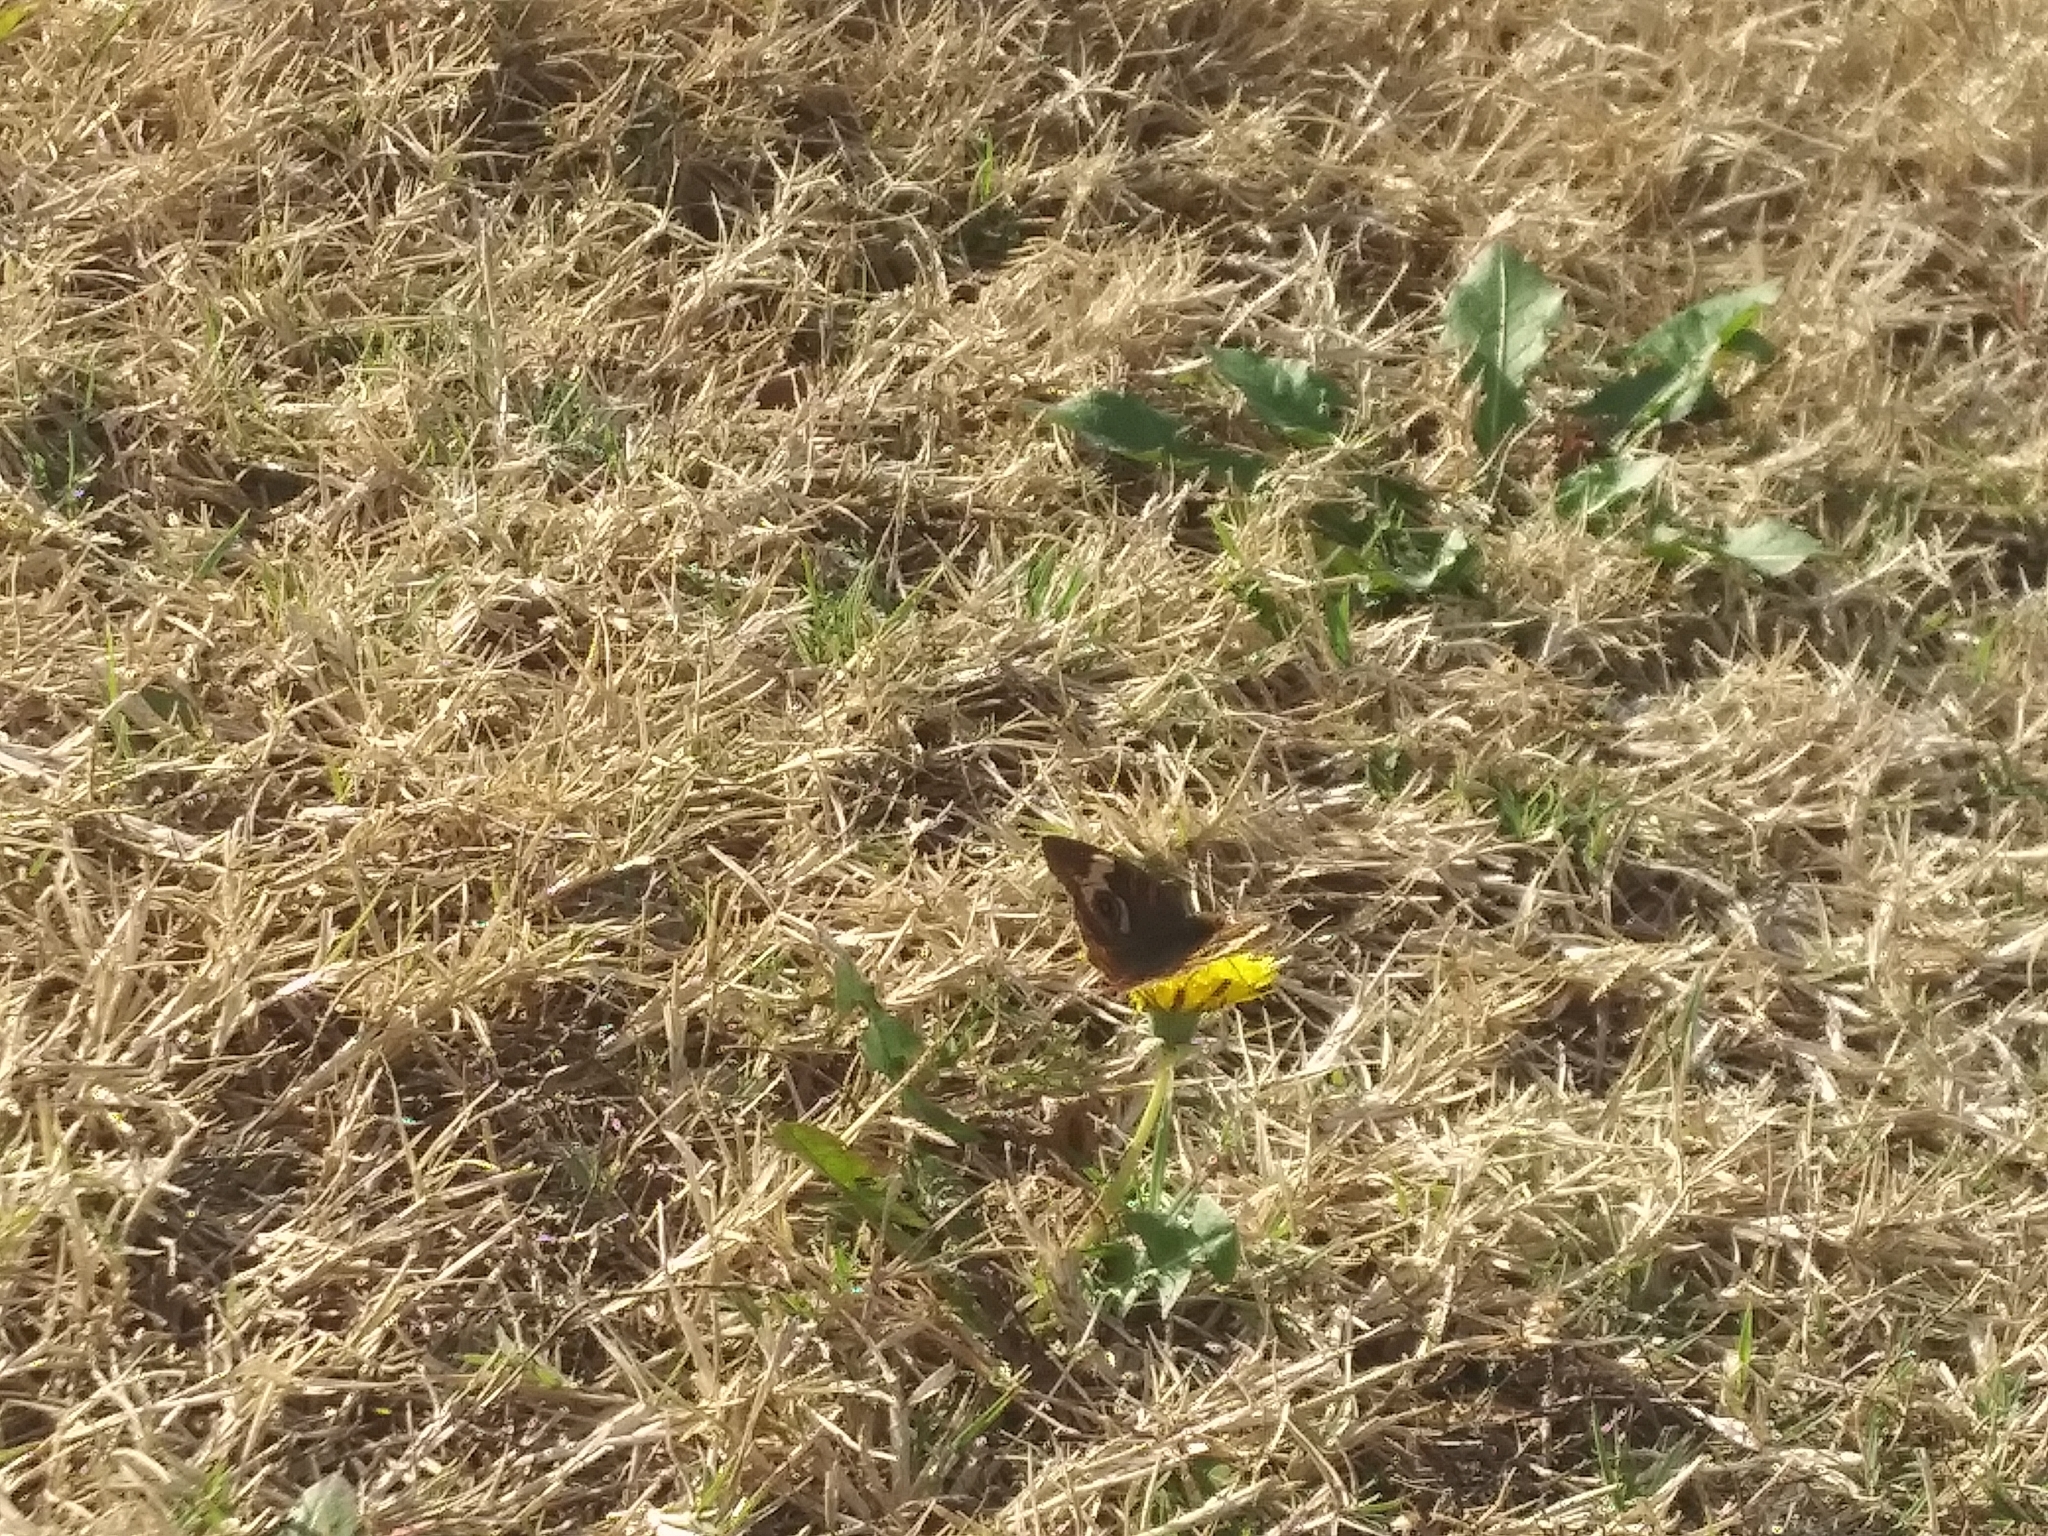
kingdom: Animalia
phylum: Arthropoda
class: Insecta
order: Lepidoptera
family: Nymphalidae
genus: Junonia
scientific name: Junonia coenia
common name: Common buckeye
